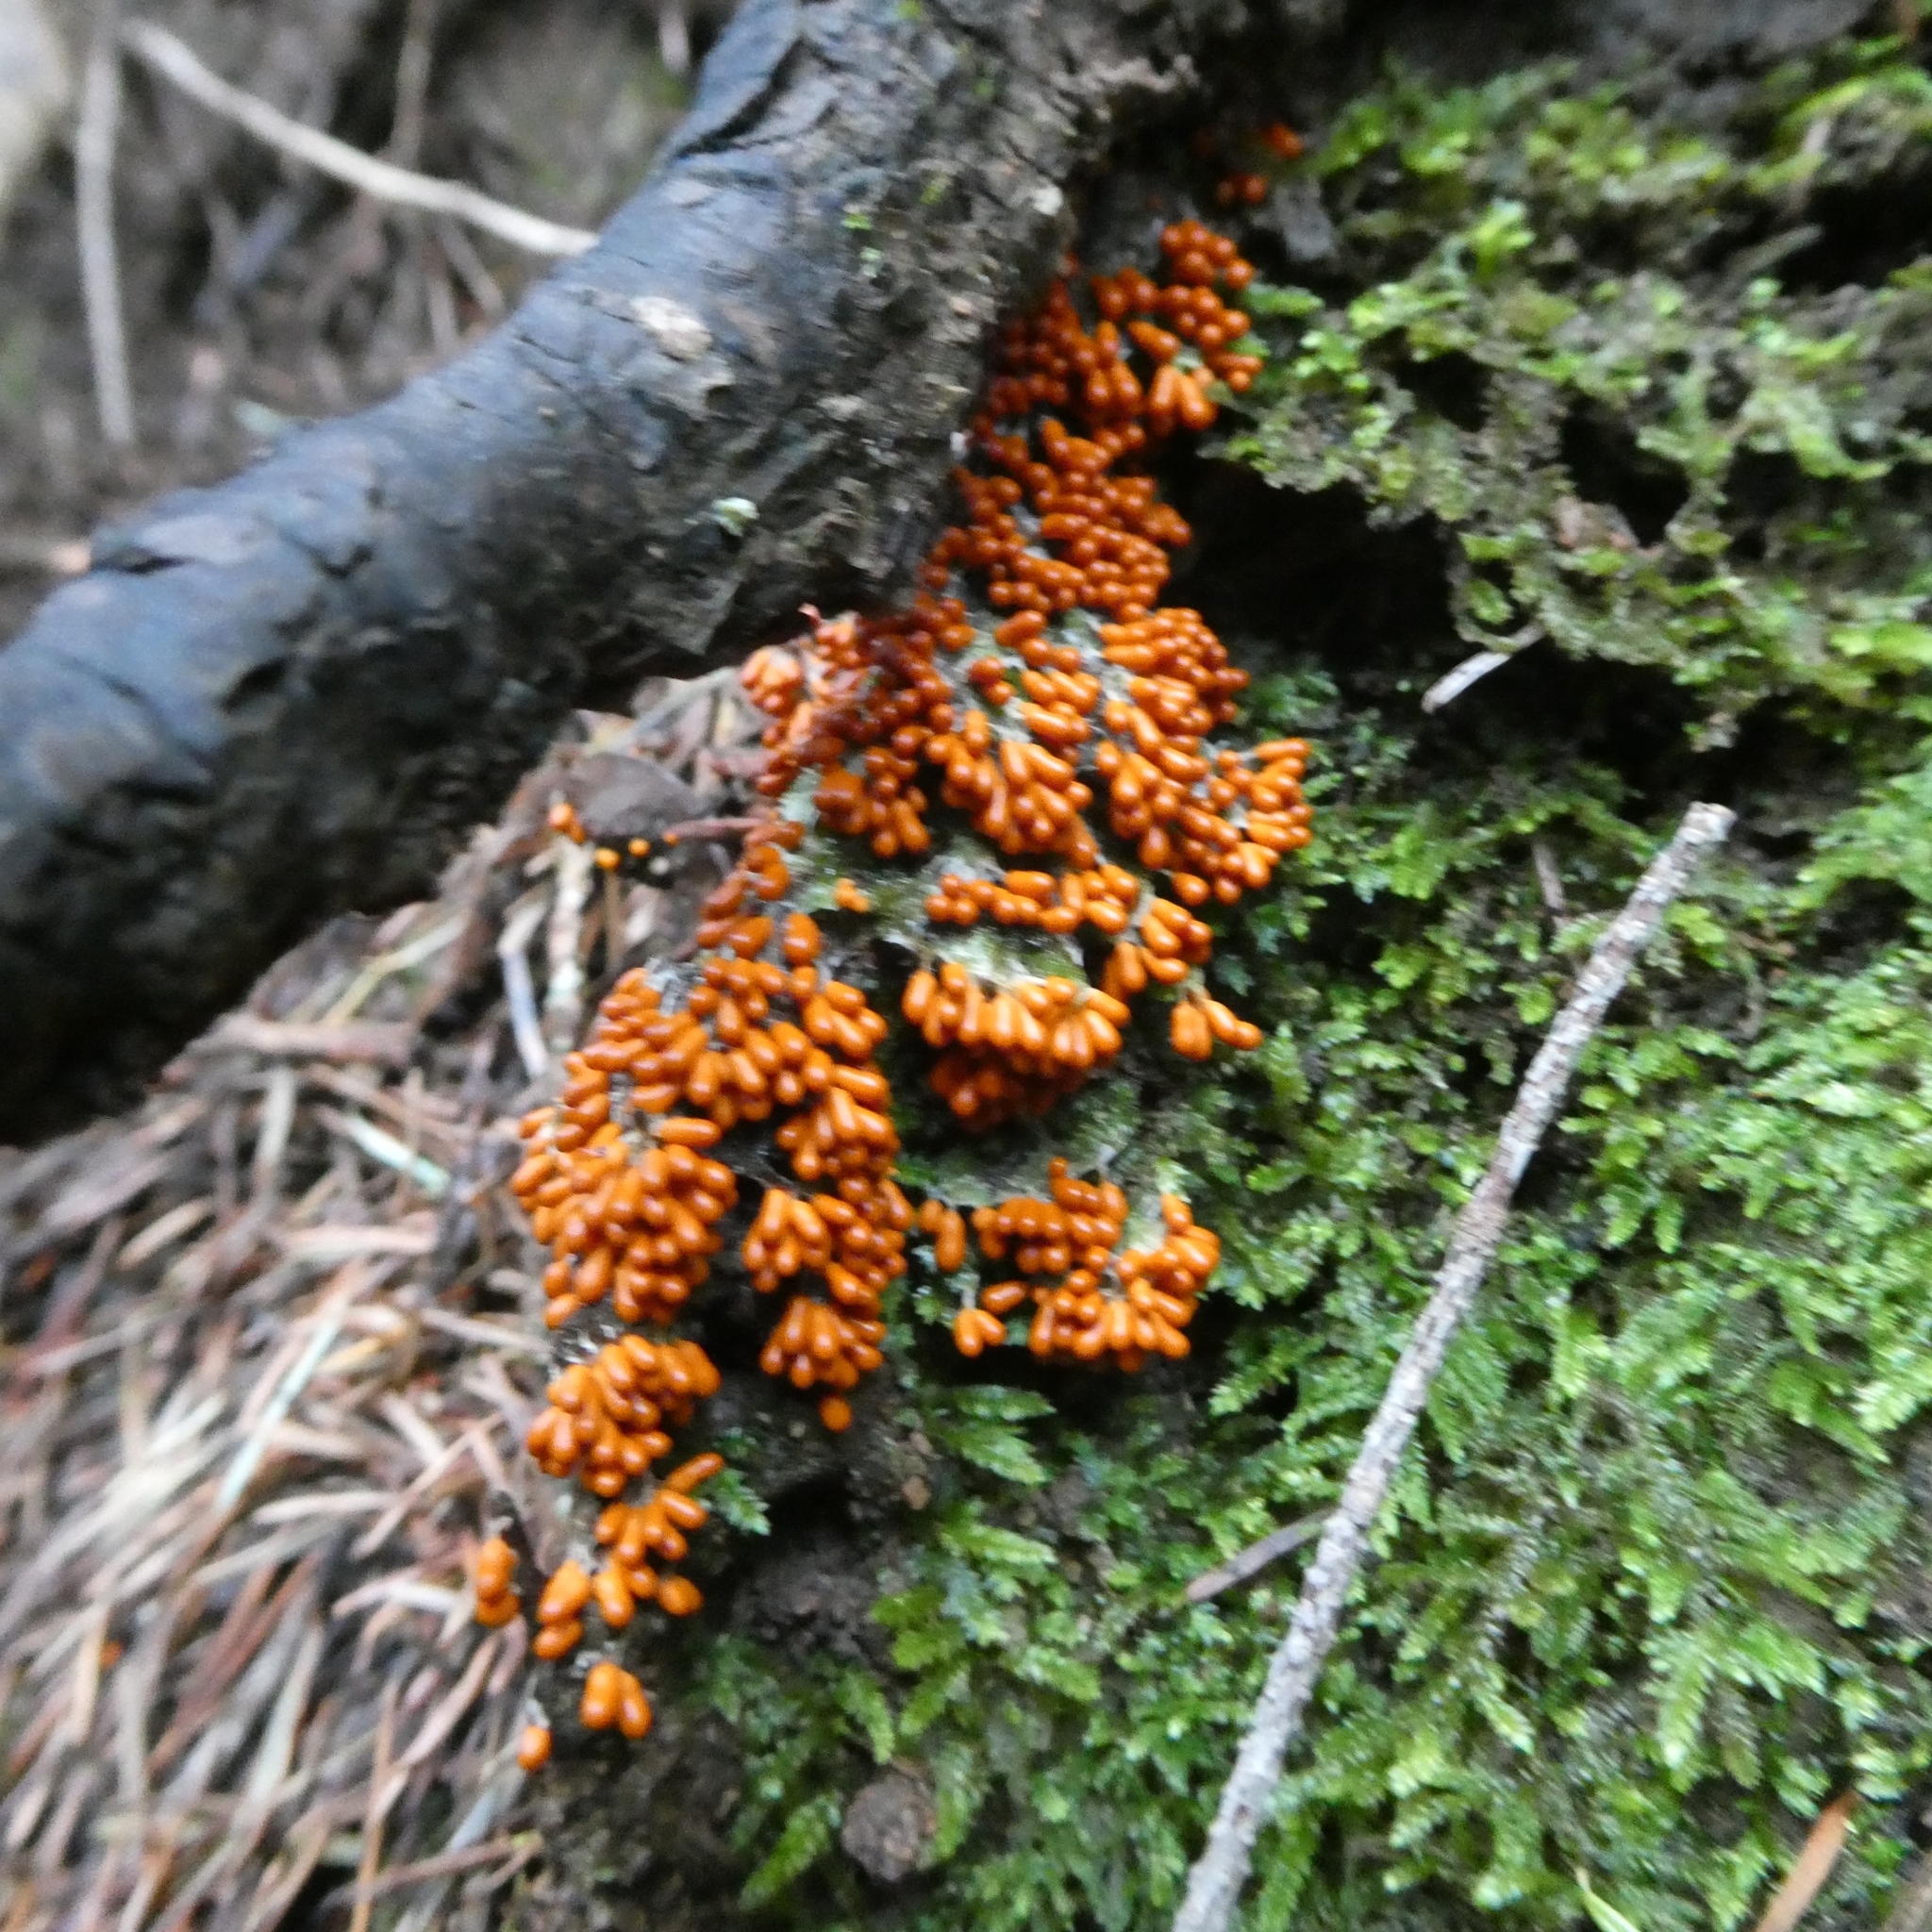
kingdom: Protozoa
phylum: Mycetozoa
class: Myxomycetes
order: Physarales
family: Physaraceae
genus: Leocarpus
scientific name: Leocarpus fragilis
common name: Insect-egg slime
